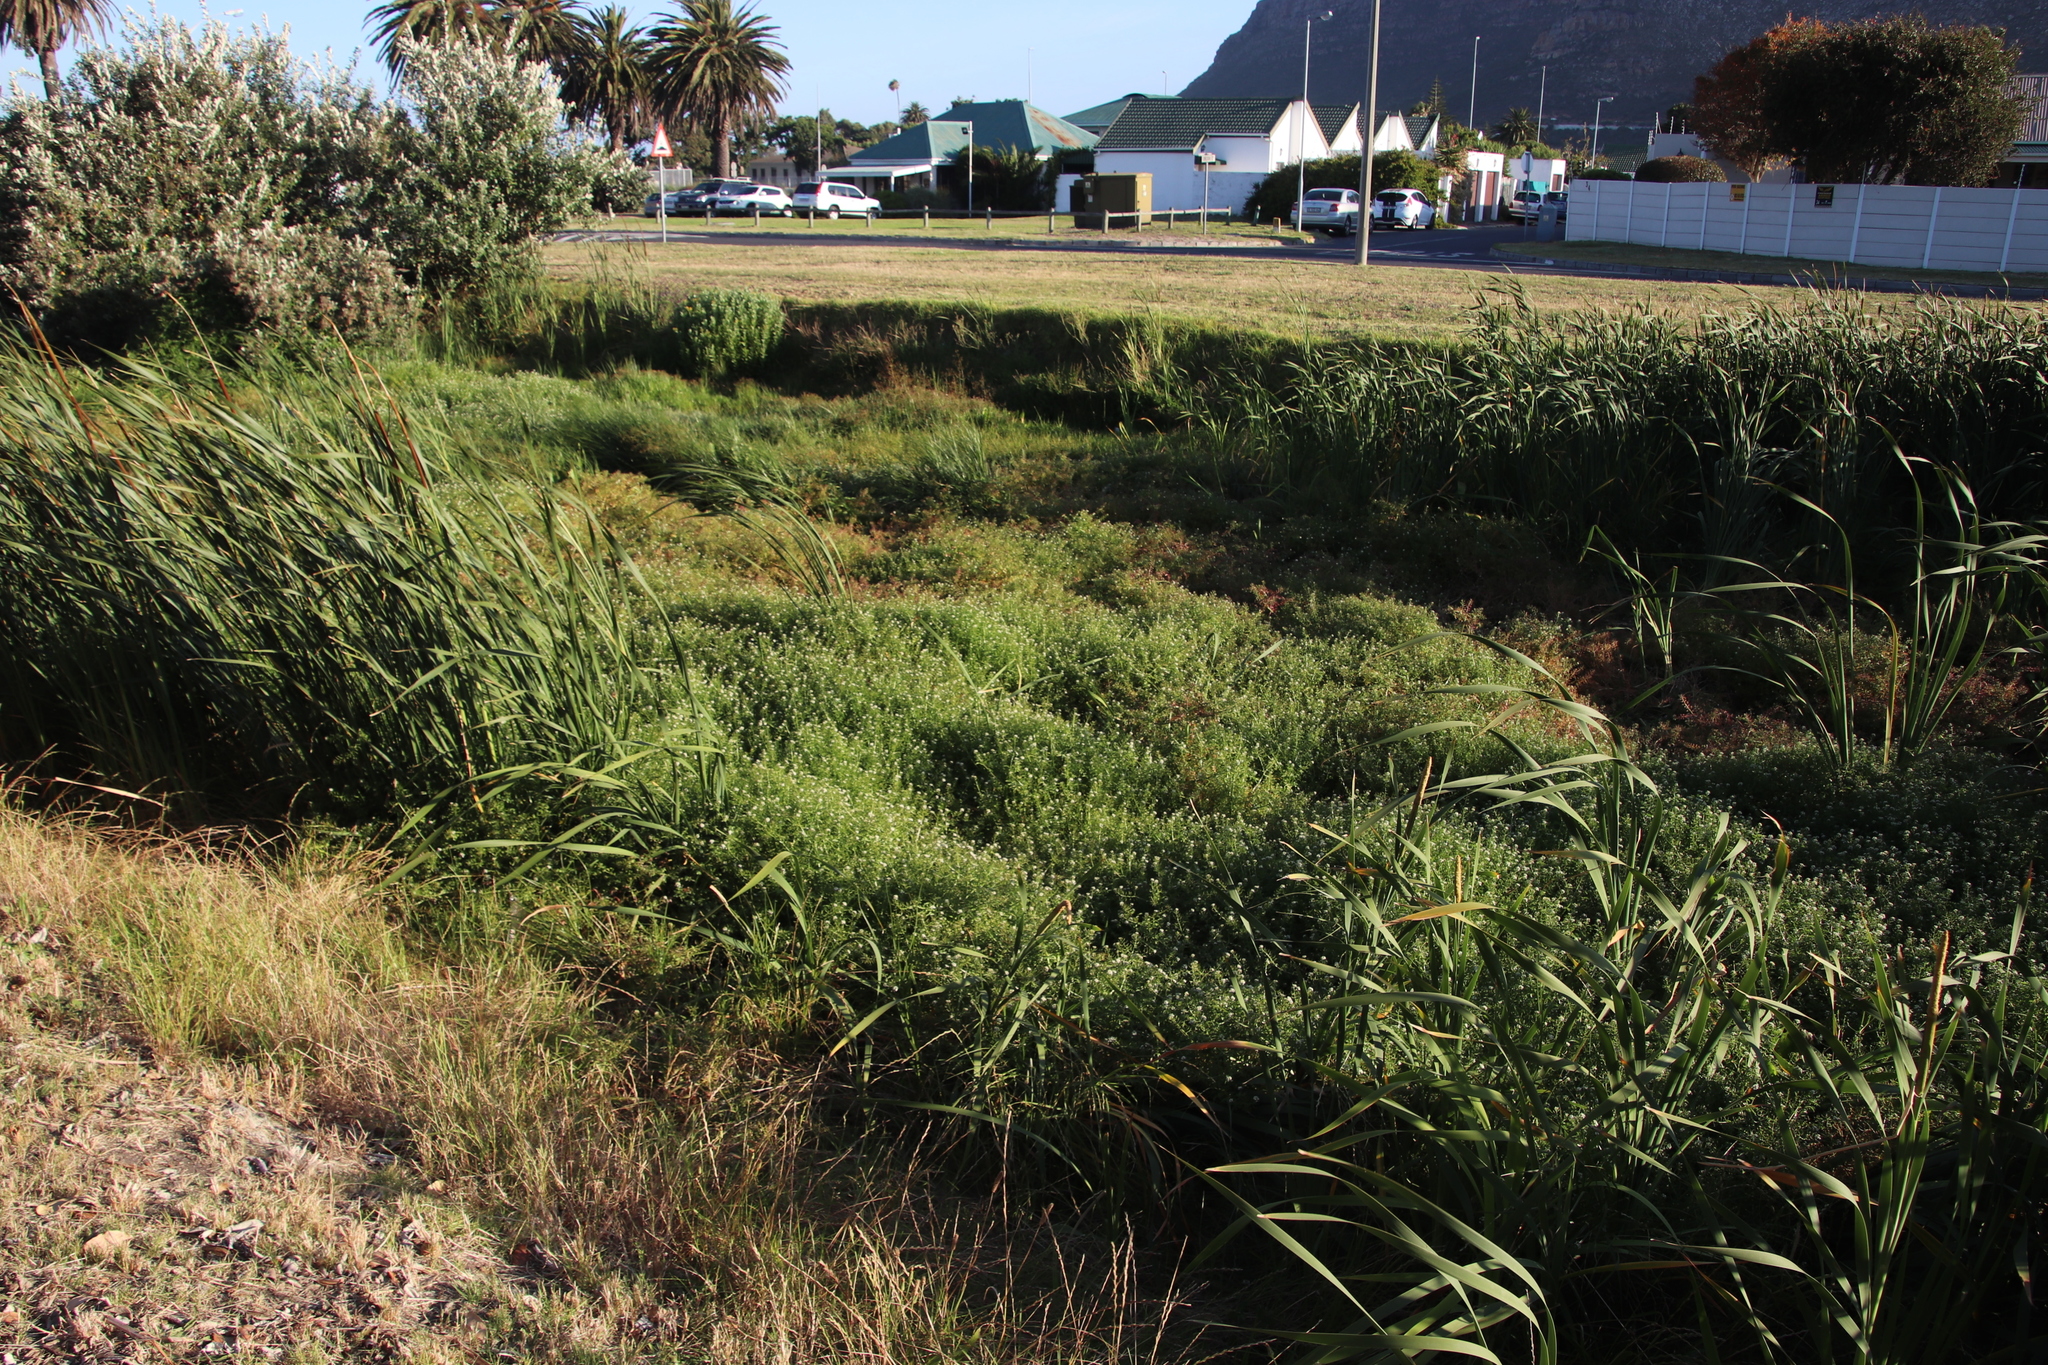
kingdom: Plantae
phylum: Tracheophyta
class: Magnoliopsida
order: Brassicales
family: Brassicaceae
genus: Nasturtium
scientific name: Nasturtium officinale
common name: Watercress
